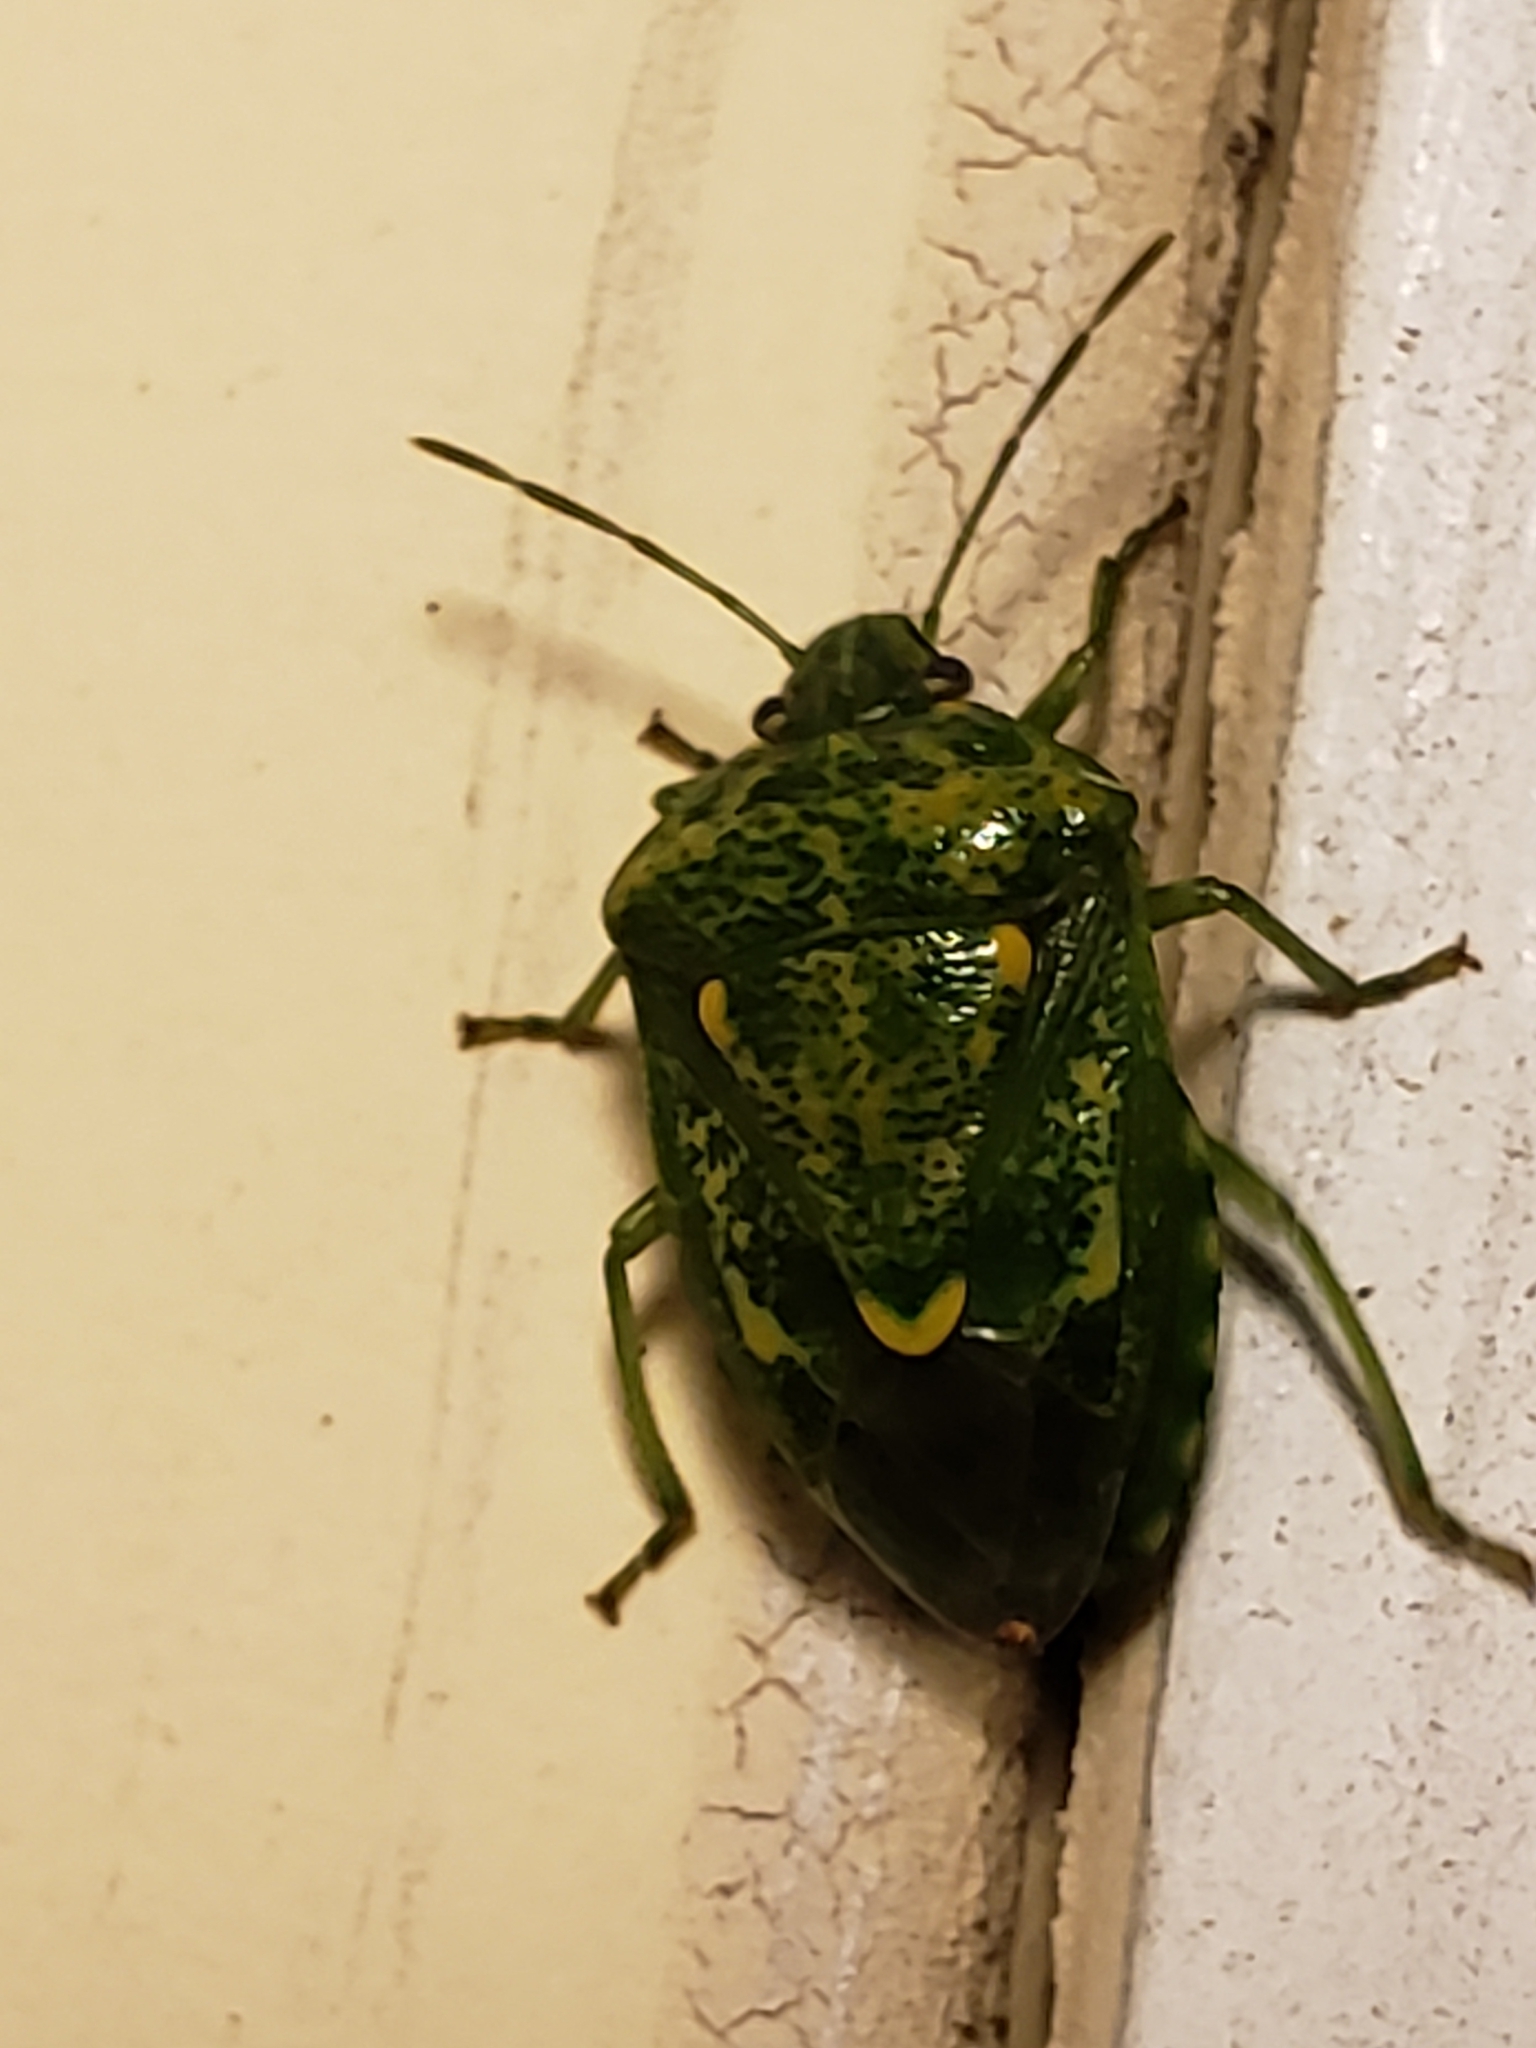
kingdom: Animalia
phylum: Arthropoda
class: Insecta
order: Hemiptera
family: Pentatomidae
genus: Banasa
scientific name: Banasa euchlora
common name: Cedar berry bug
